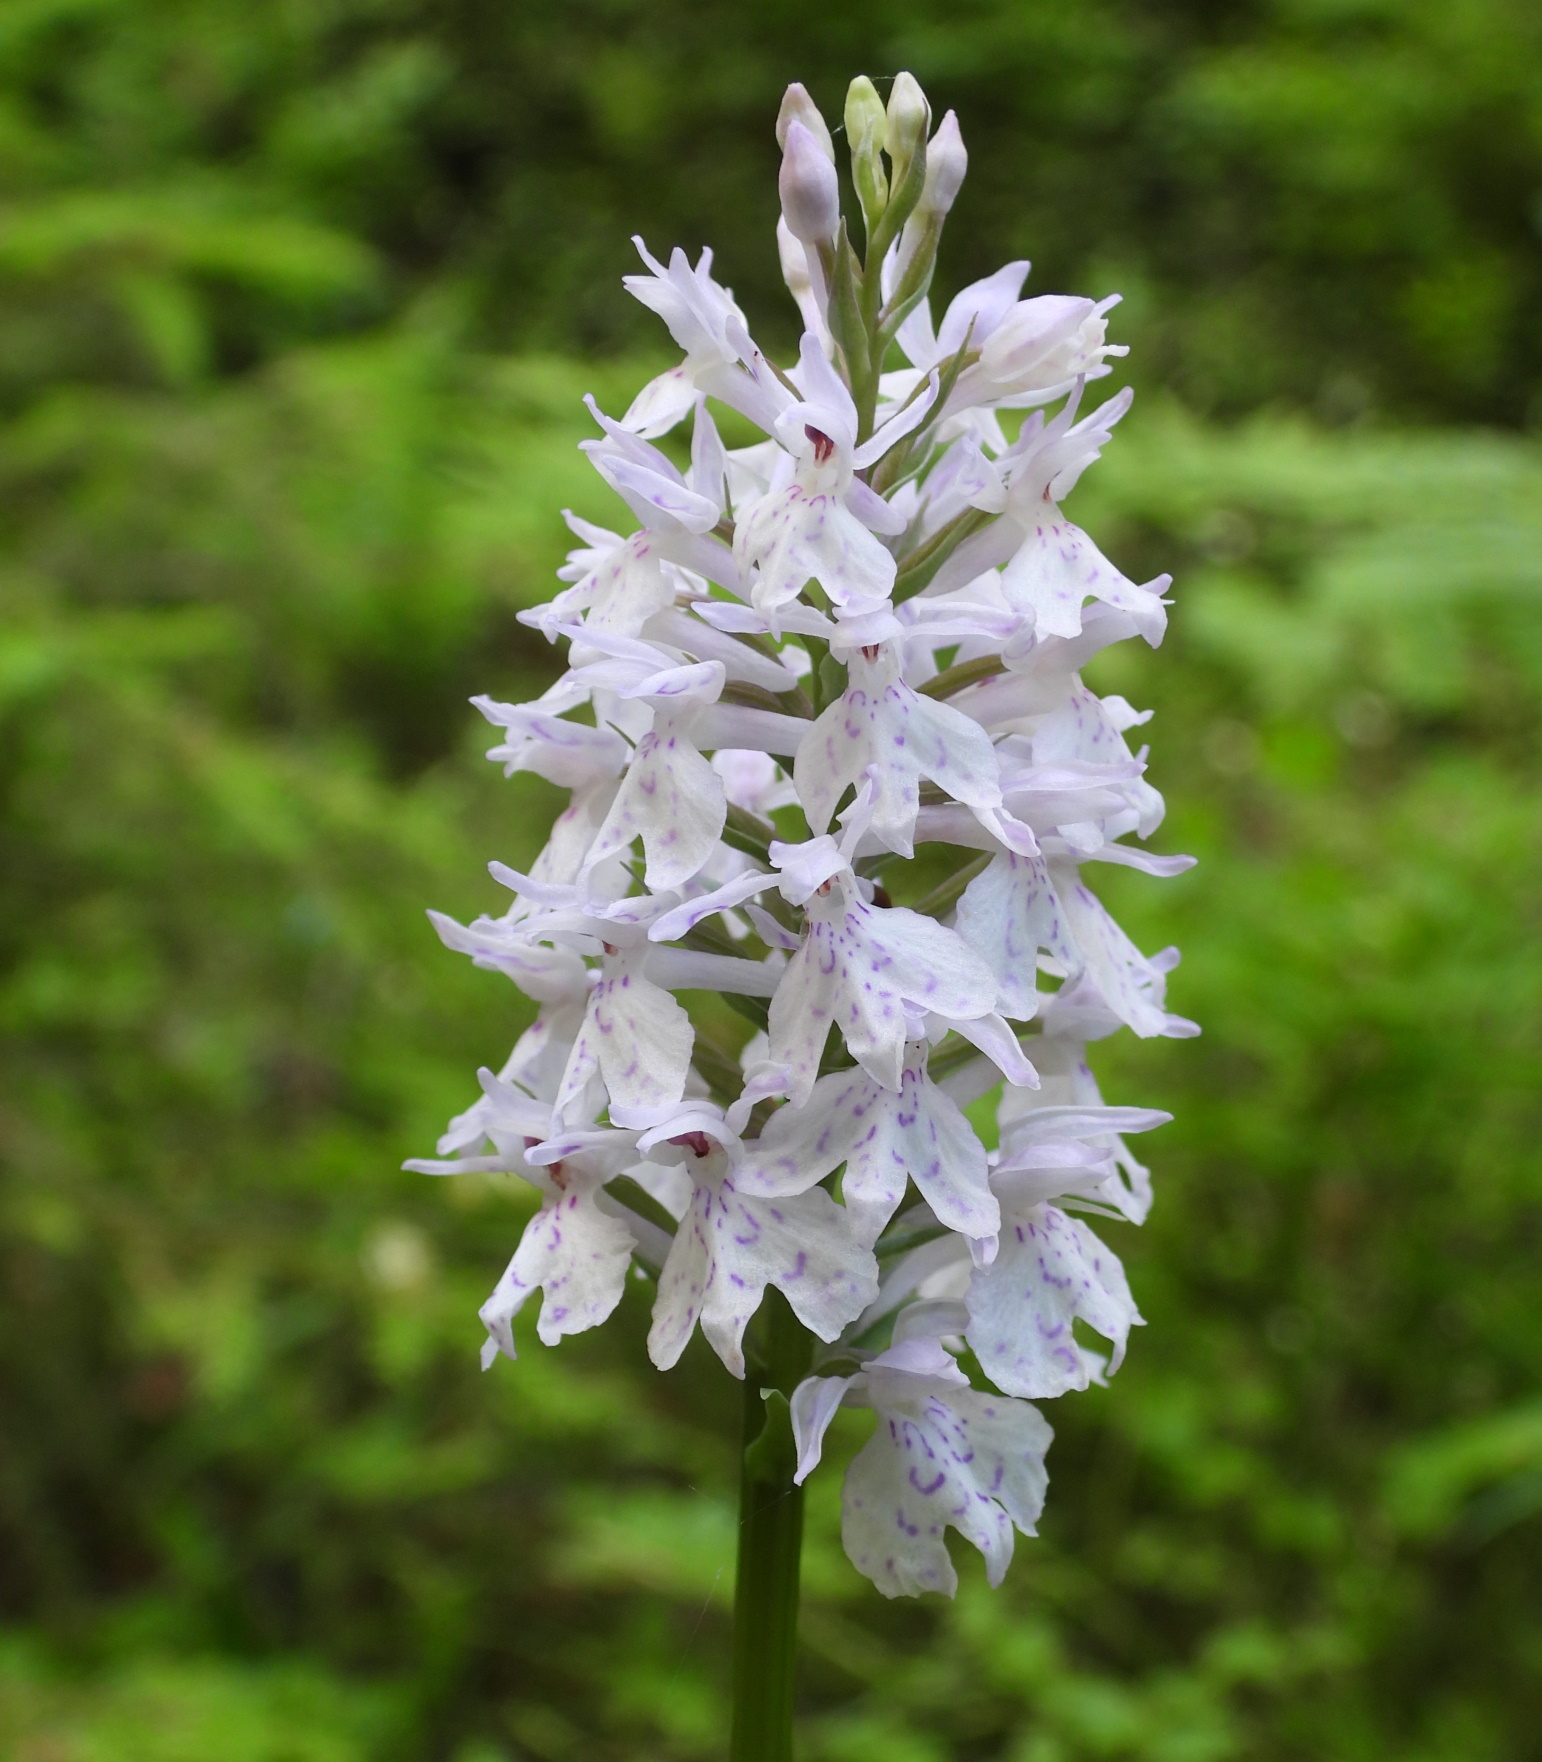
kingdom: Plantae
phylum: Tracheophyta
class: Liliopsida
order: Asparagales
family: Orchidaceae
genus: Dactylorhiza
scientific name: Dactylorhiza maculata
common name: Heath spotted-orchid
